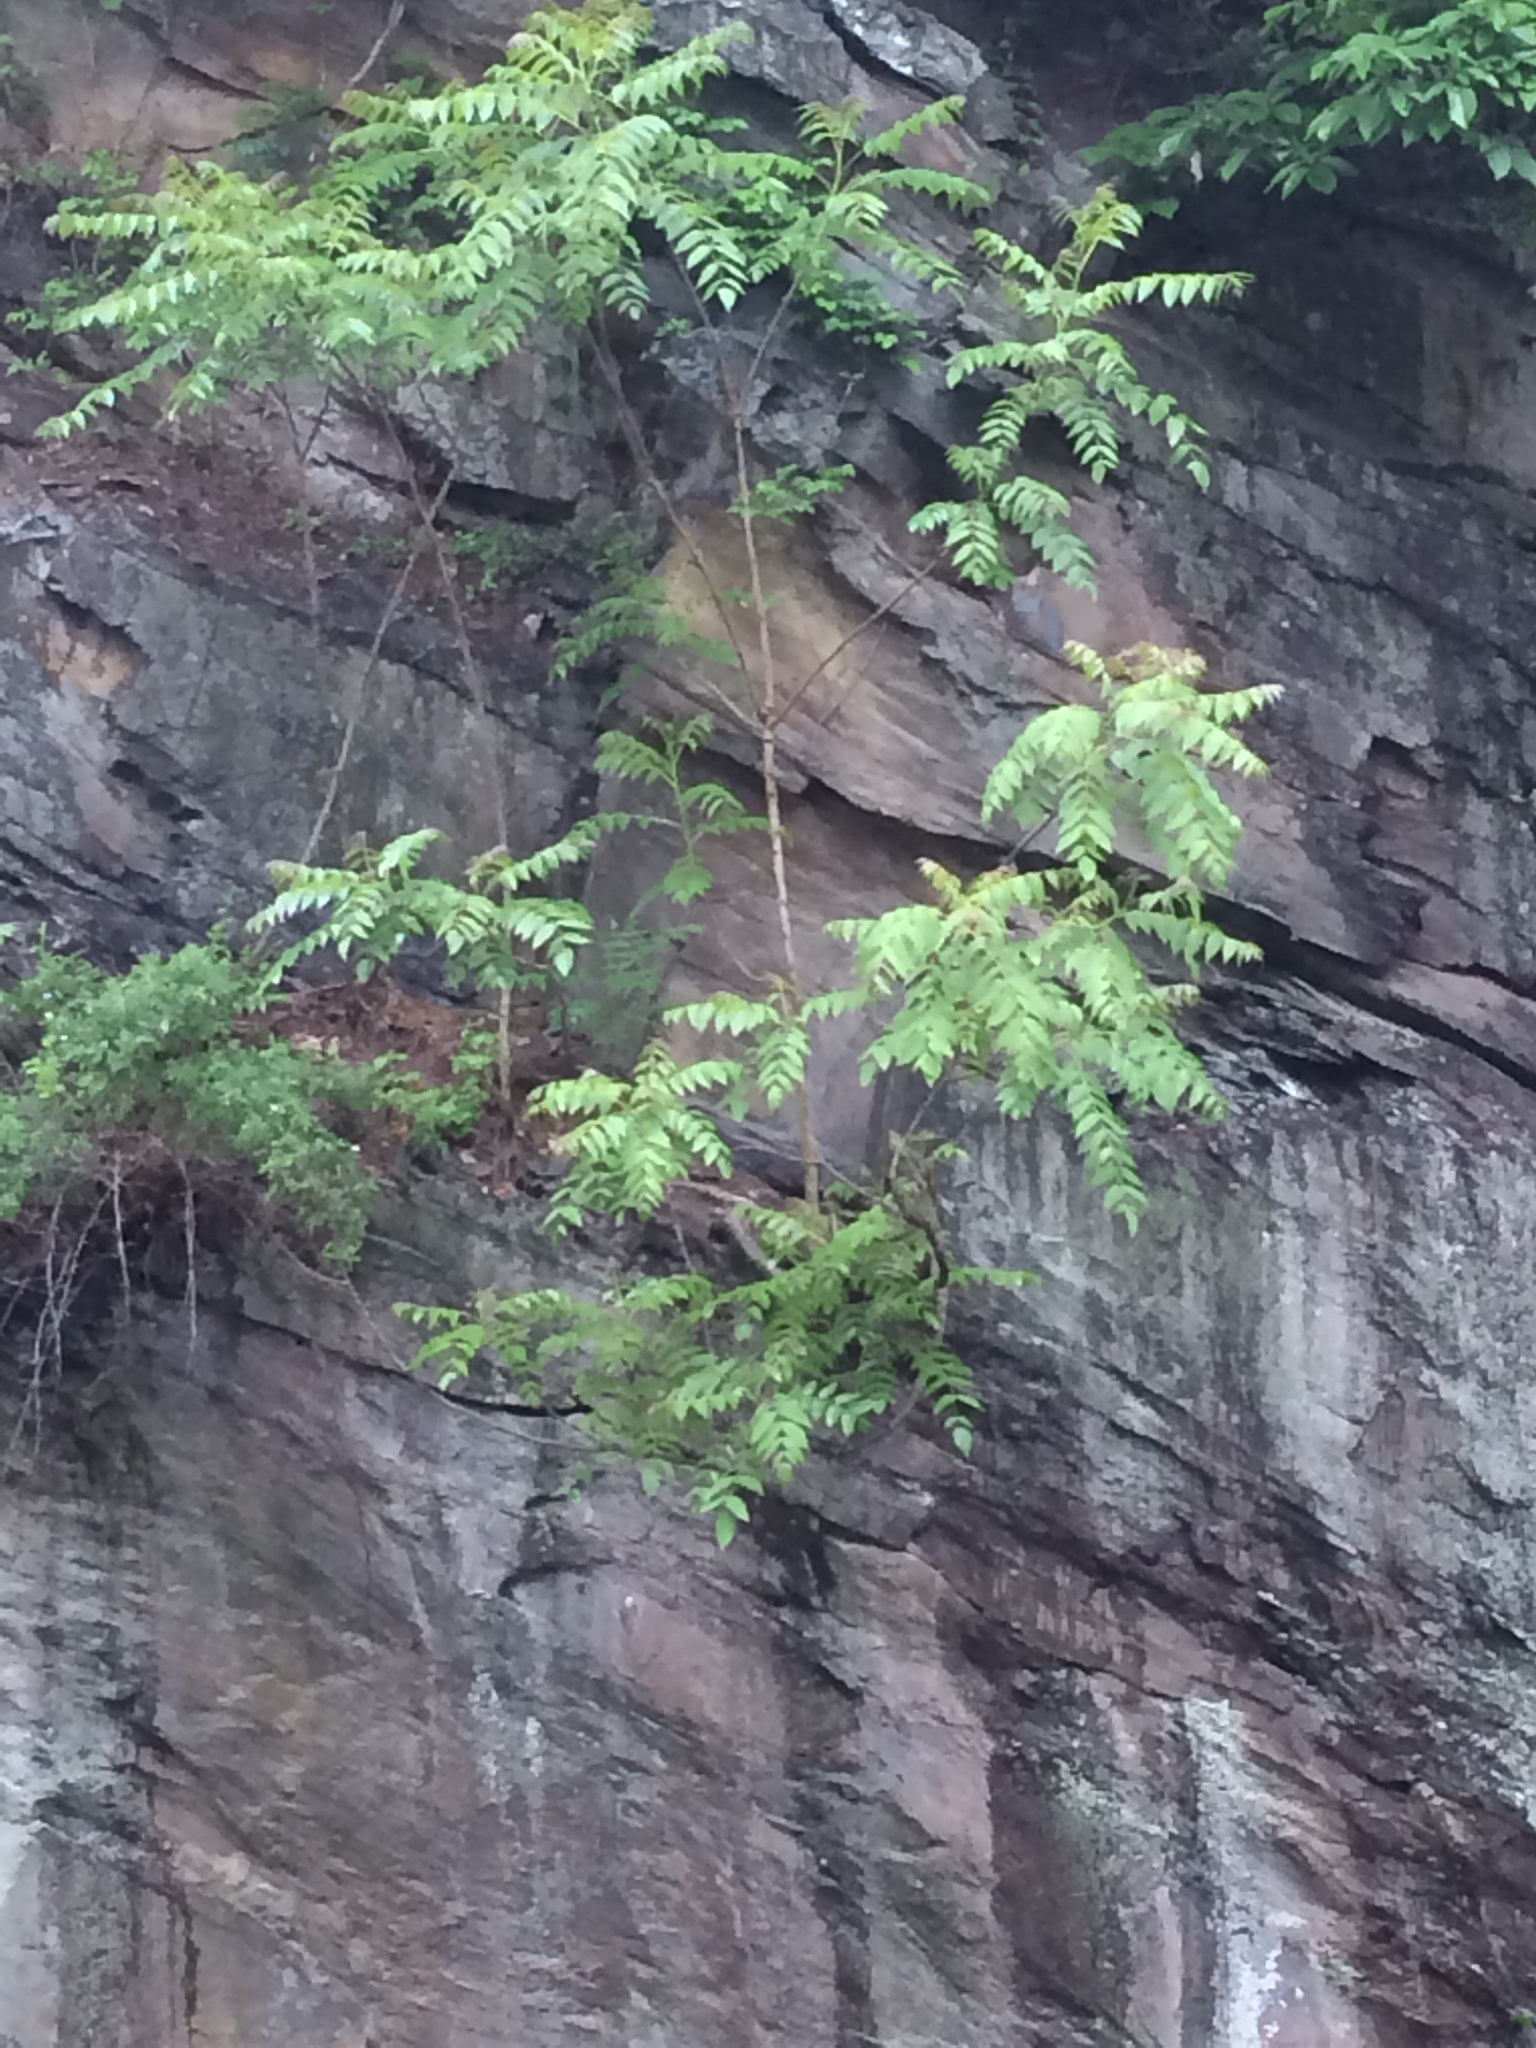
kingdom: Plantae
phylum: Tracheophyta
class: Magnoliopsida
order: Sapindales
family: Simaroubaceae
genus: Ailanthus
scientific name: Ailanthus altissima
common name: Tree-of-heaven
